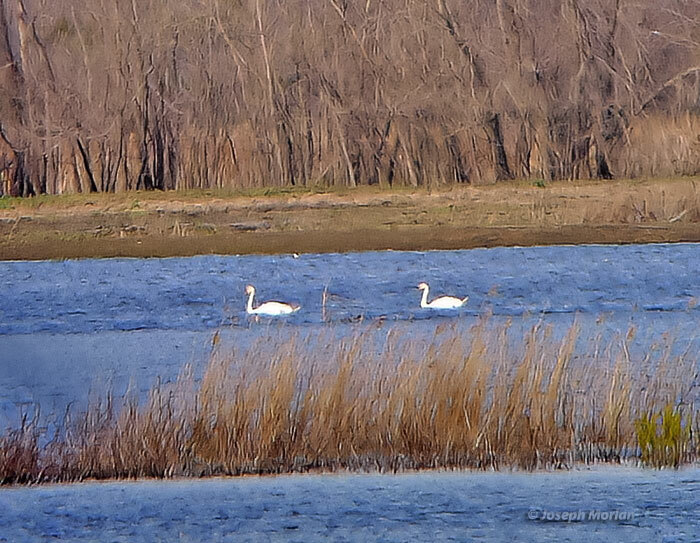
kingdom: Animalia
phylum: Chordata
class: Aves
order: Anseriformes
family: Anatidae
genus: Cygnus
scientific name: Cygnus olor
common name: Mute swan
